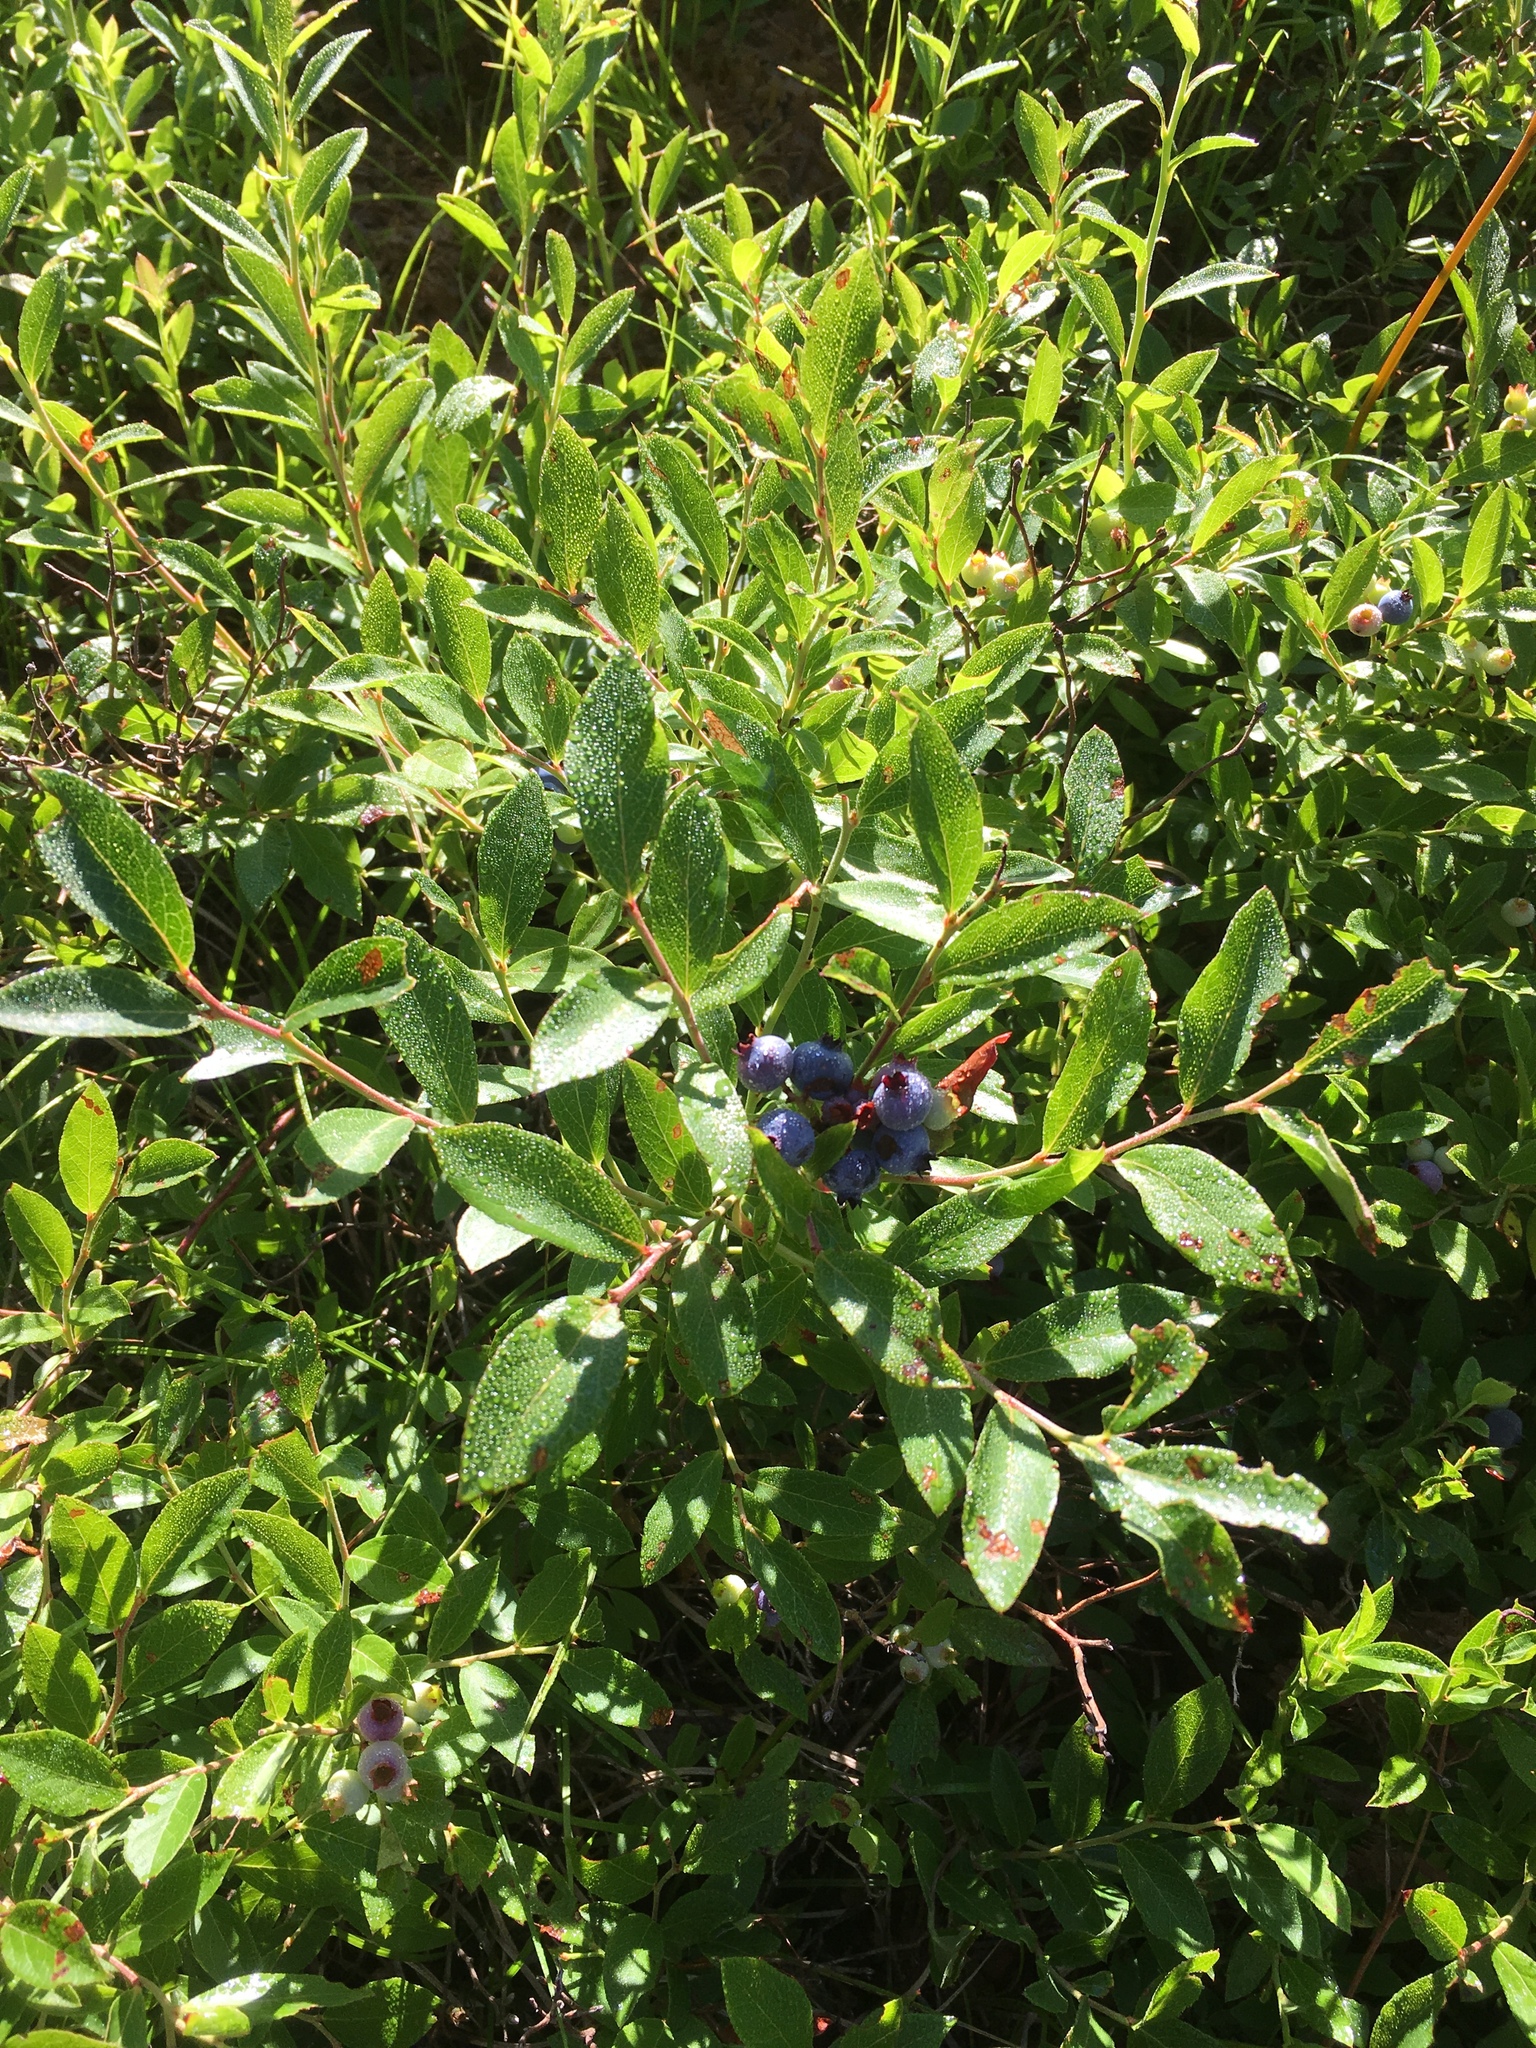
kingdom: Plantae
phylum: Tracheophyta
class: Magnoliopsida
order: Ericales
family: Ericaceae
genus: Vaccinium
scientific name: Vaccinium angustifolium
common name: Early lowbush blueberry
